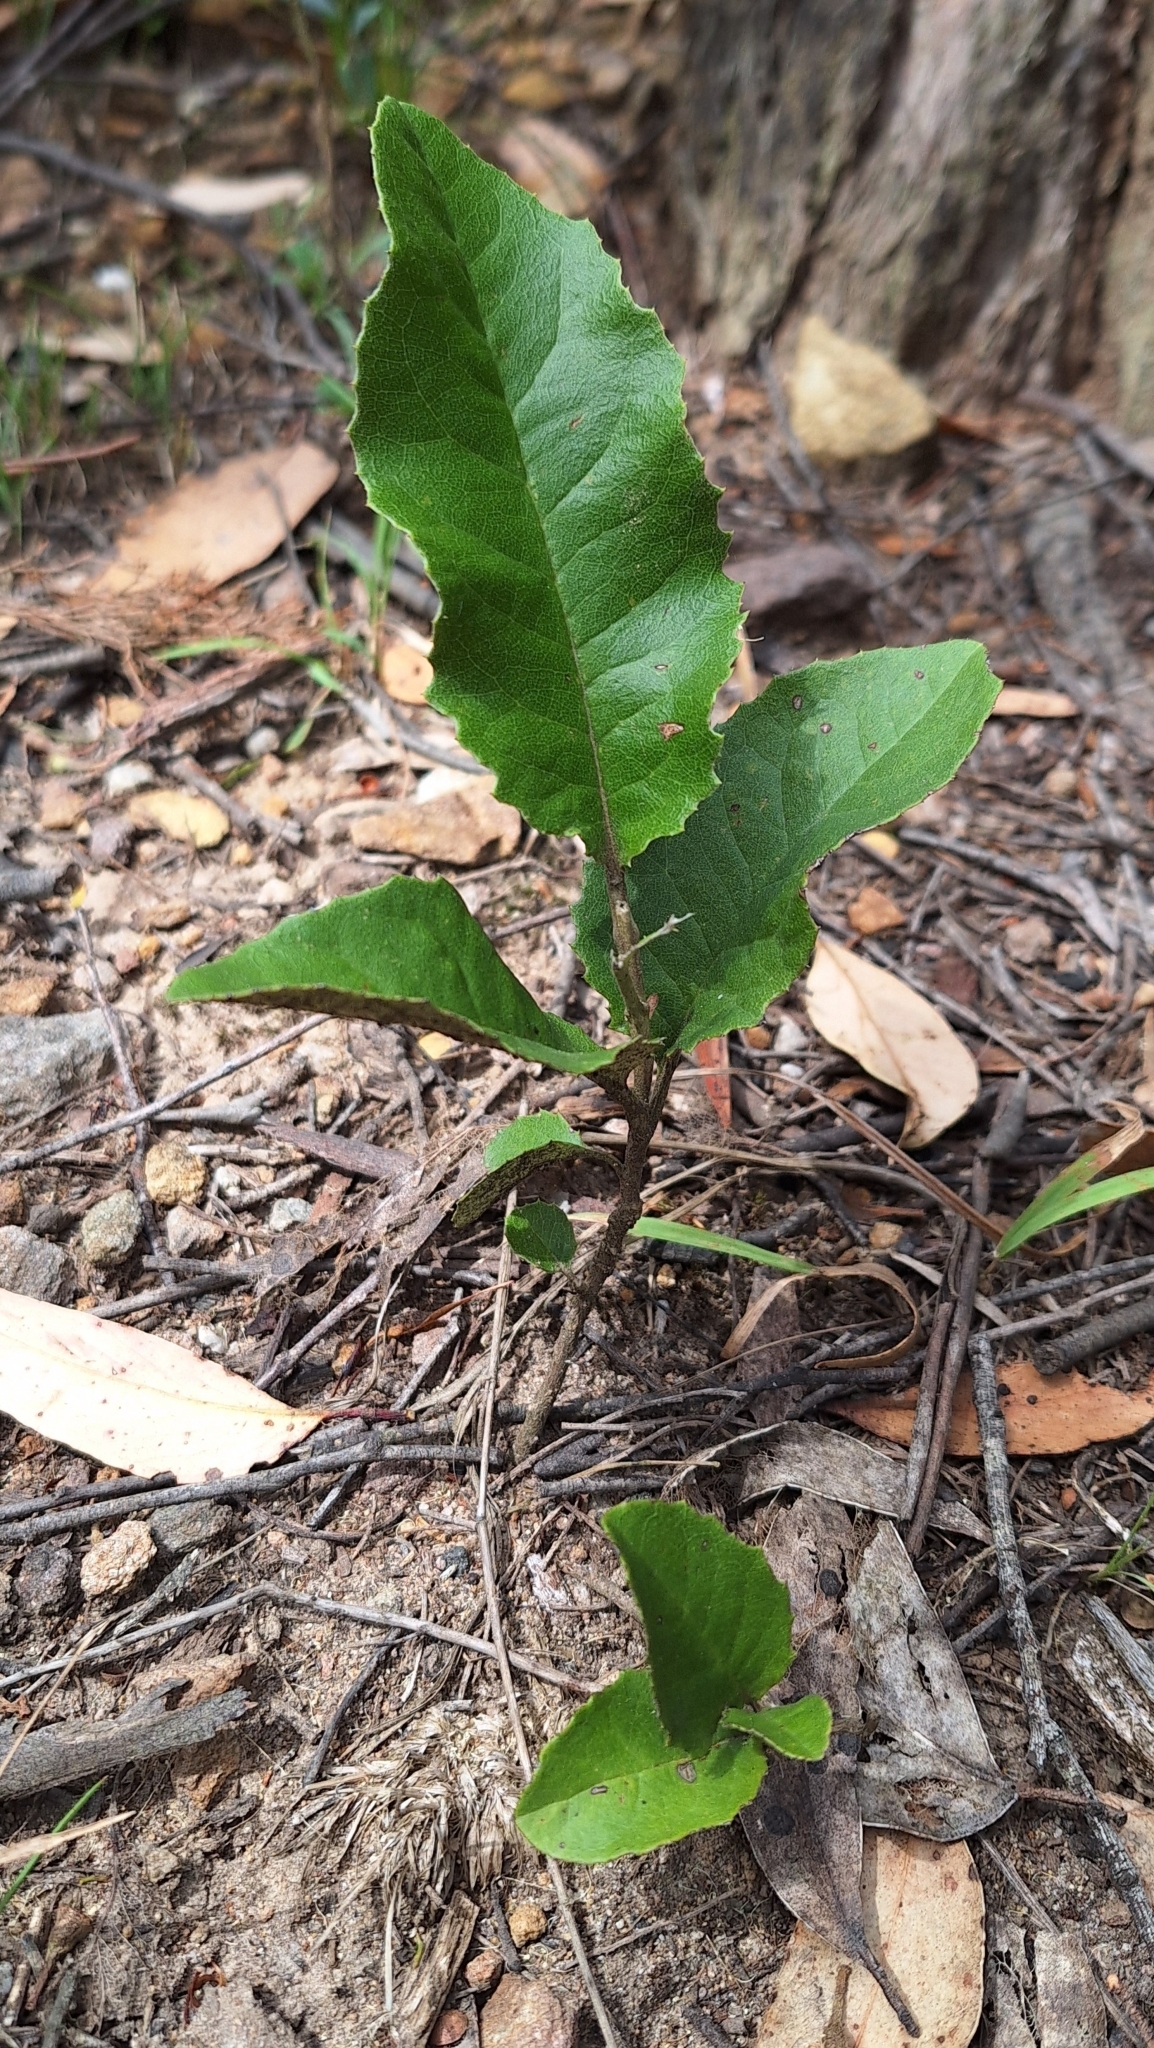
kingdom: Plantae
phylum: Tracheophyta
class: Magnoliopsida
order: Asterales
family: Asteraceae
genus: Olearia
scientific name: Olearia grandiflora
